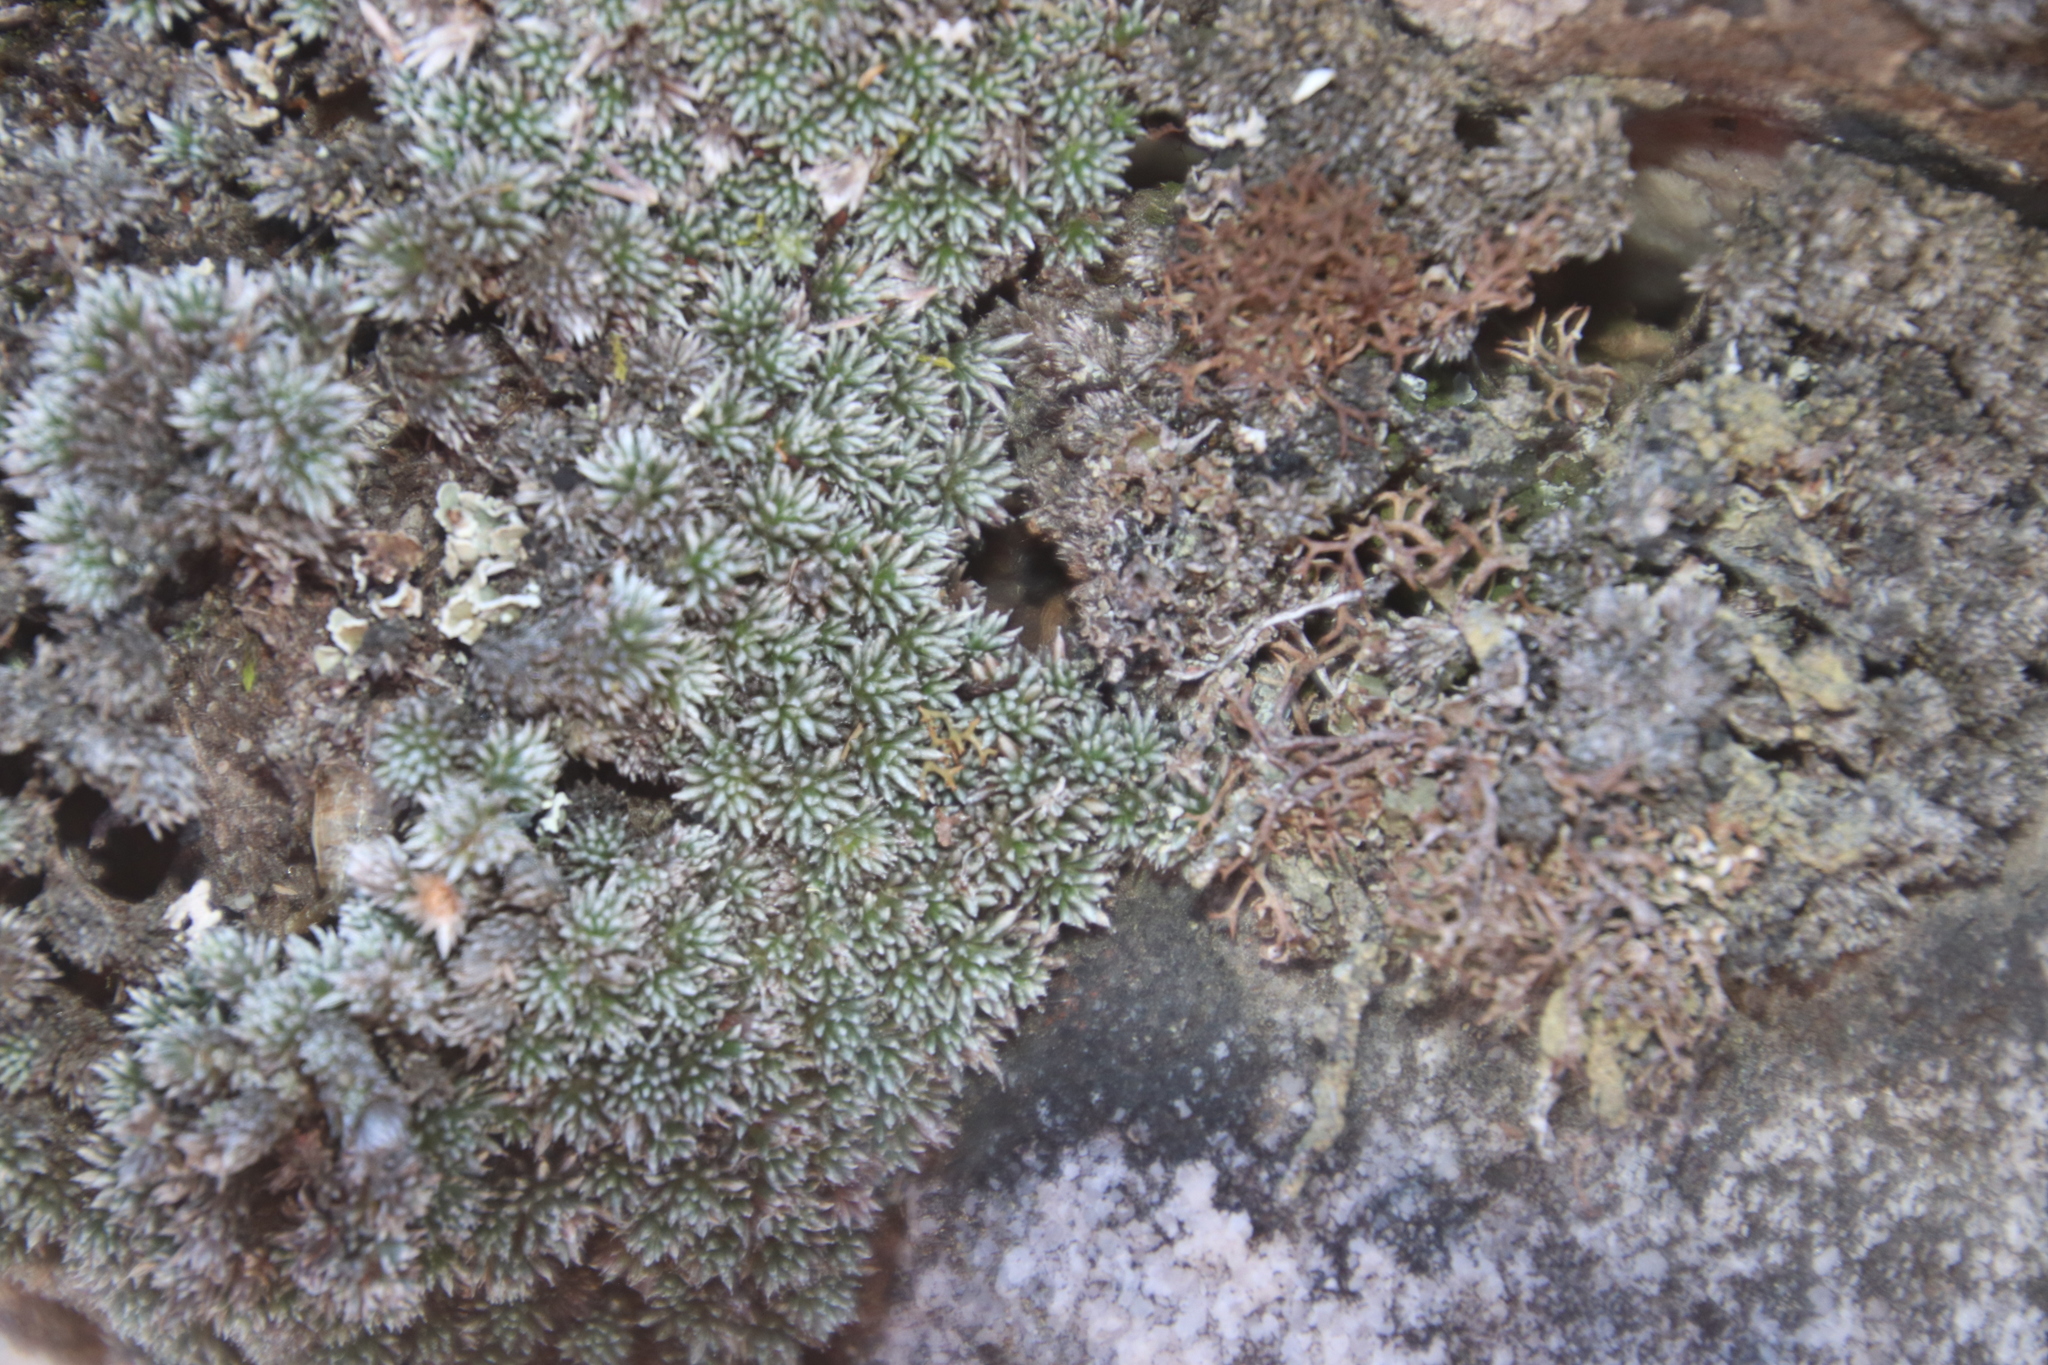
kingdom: Plantae
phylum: Tracheophyta
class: Magnoliopsida
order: Asterales
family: Asteraceae
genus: Muscosomorphe
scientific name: Muscosomorphe aretioides
